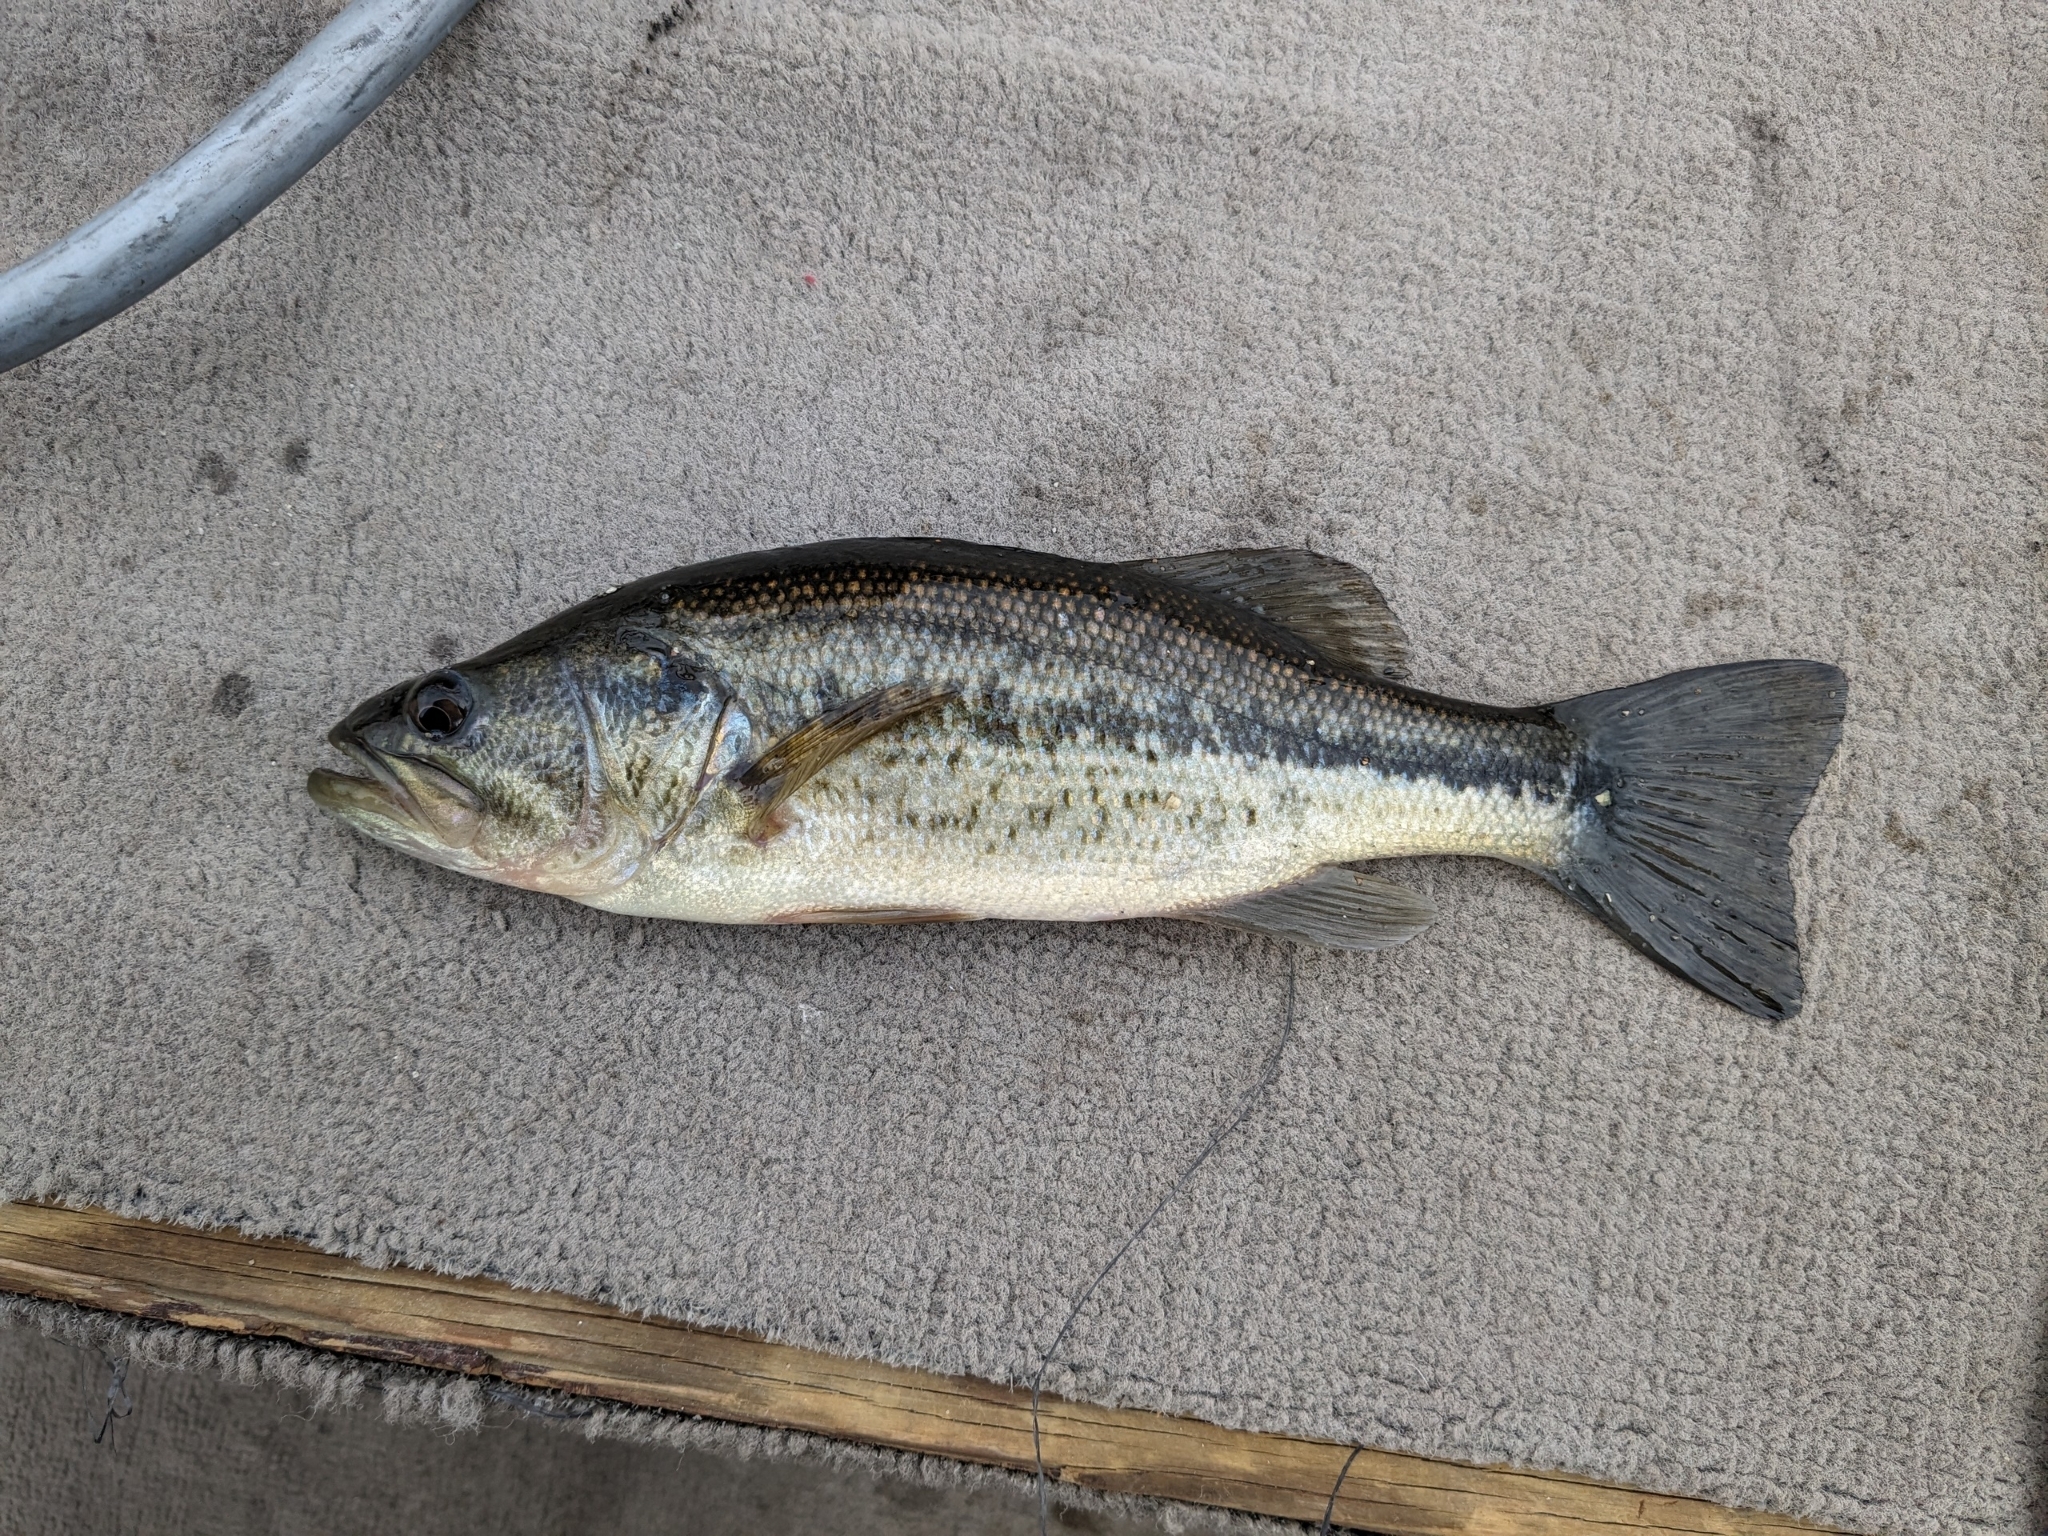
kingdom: Animalia
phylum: Chordata
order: Perciformes
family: Centrarchidae
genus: Micropterus
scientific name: Micropterus
